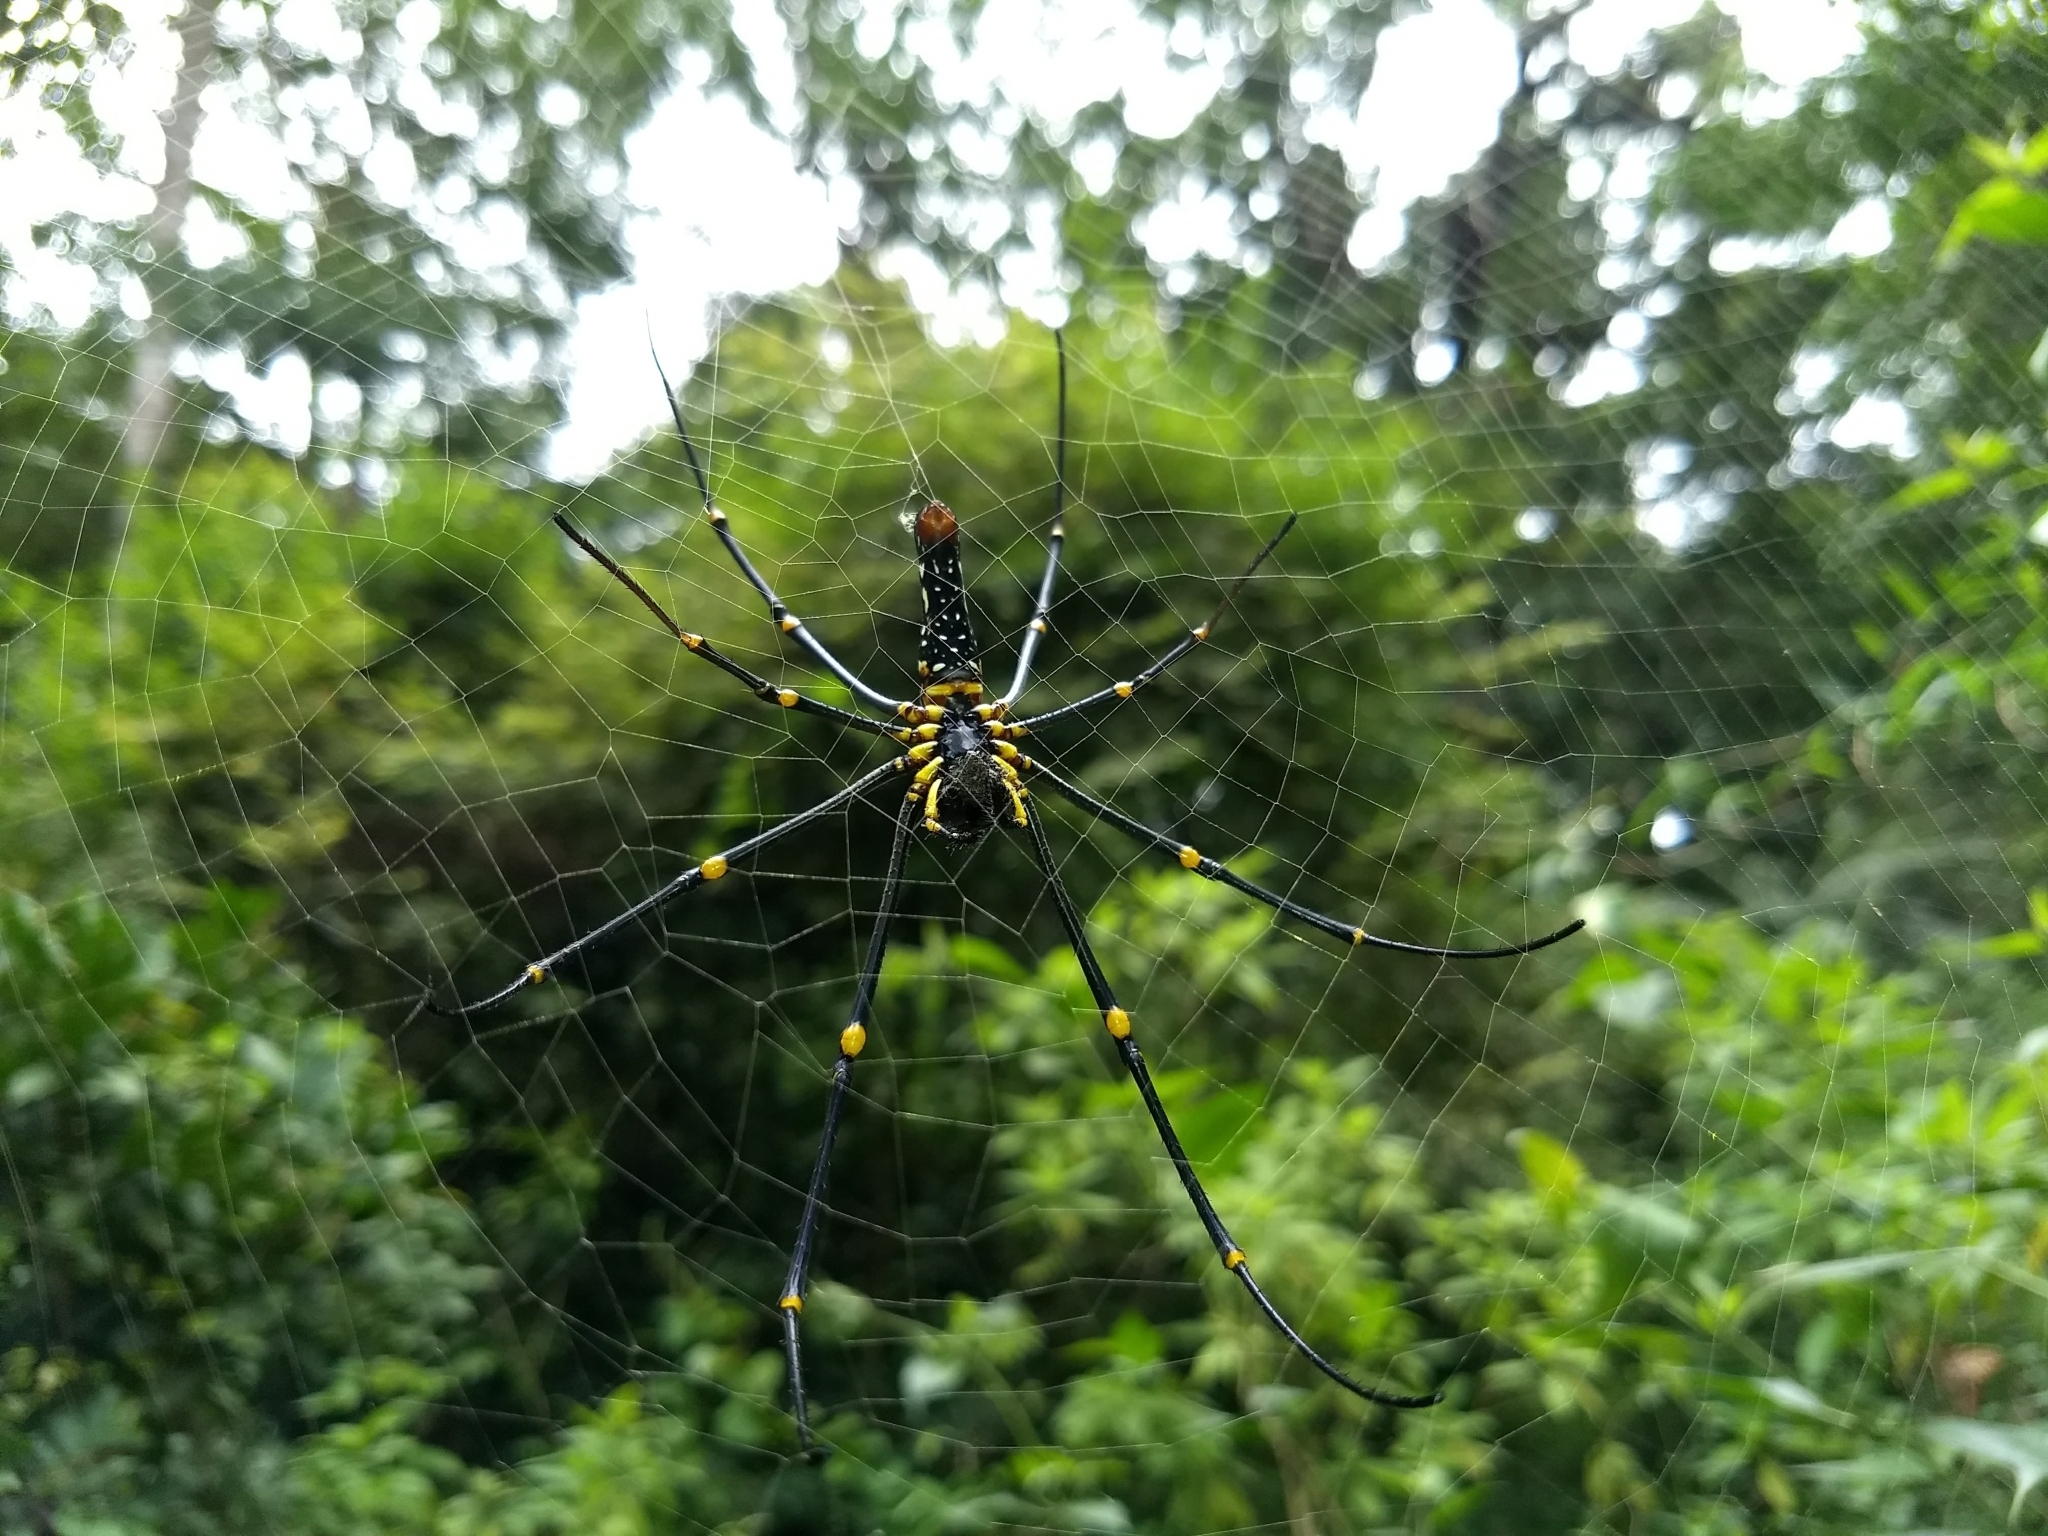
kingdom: Animalia
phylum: Arthropoda
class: Arachnida
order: Araneae
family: Araneidae
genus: Nephila
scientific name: Nephila pilipes
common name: Giant golden orb weaver
